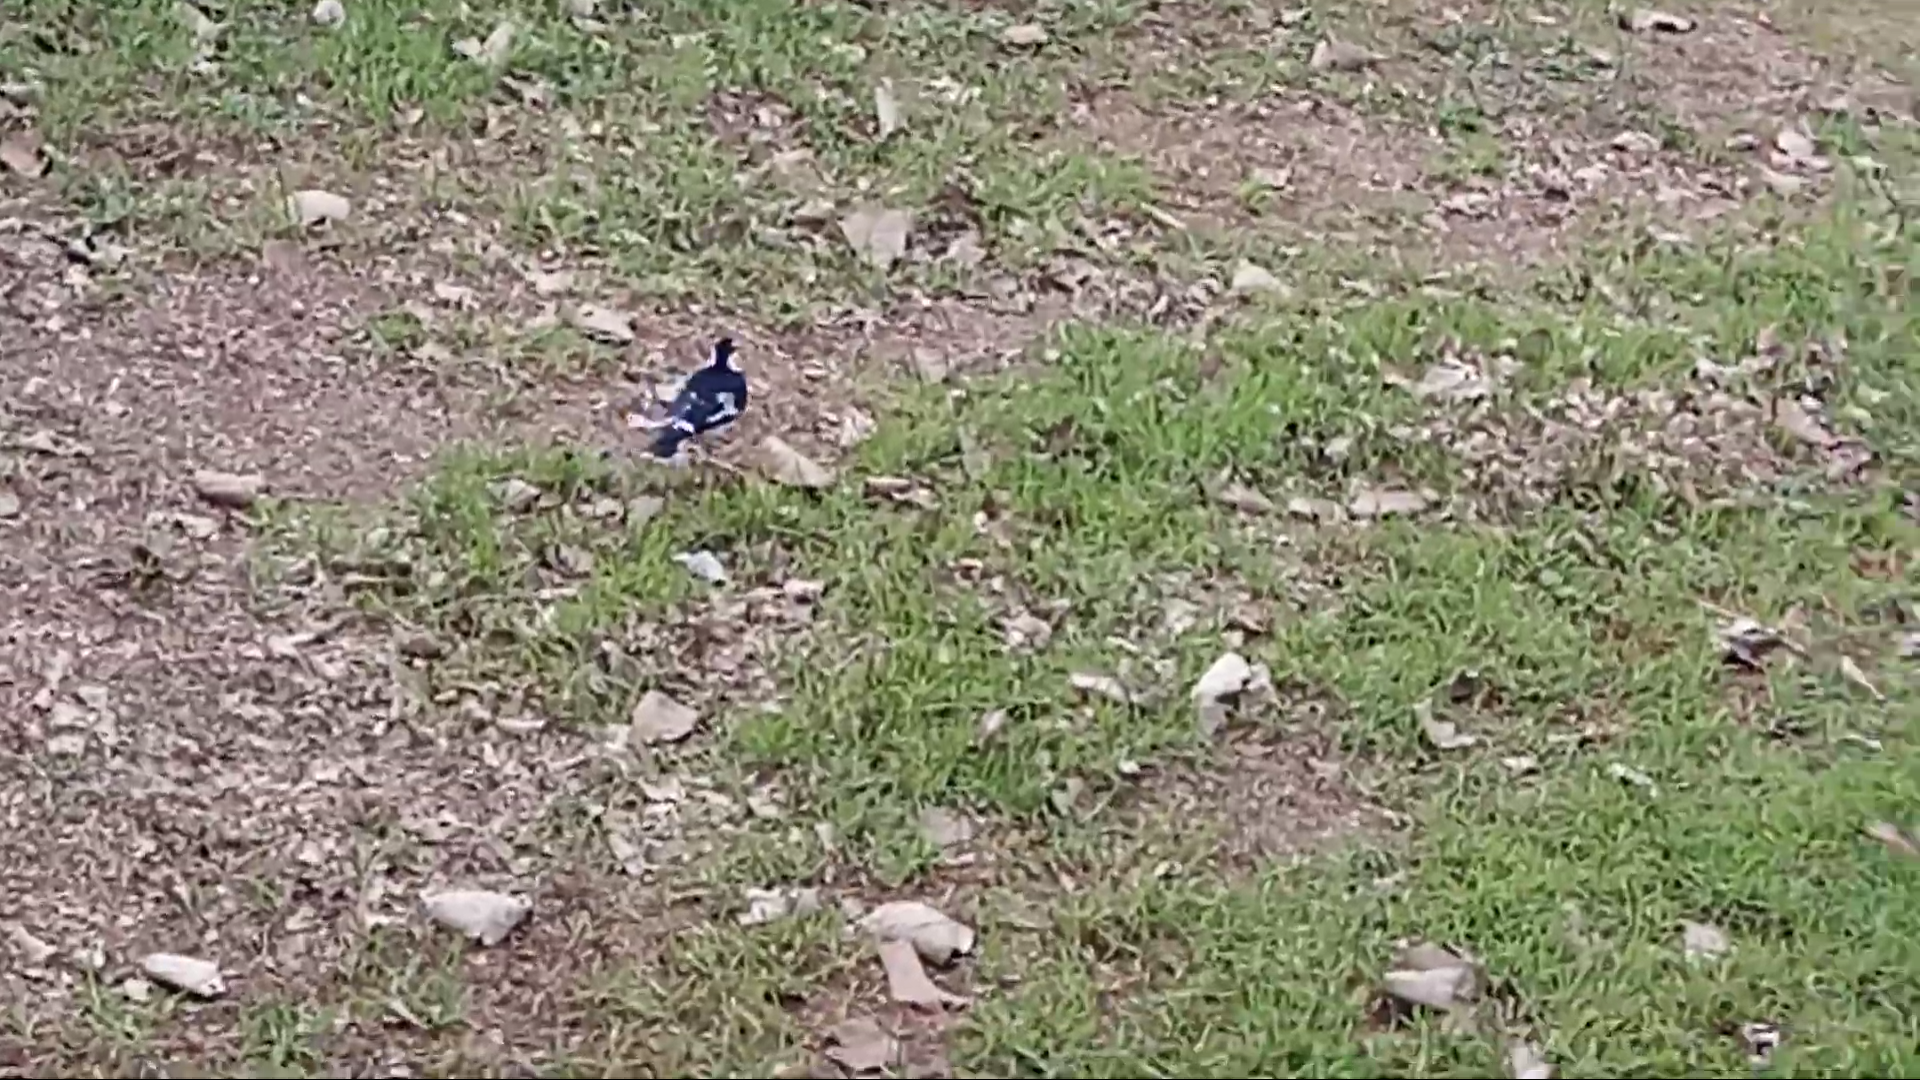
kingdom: Animalia
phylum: Chordata
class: Aves
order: Passeriformes
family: Monarchidae
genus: Grallina
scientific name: Grallina cyanoleuca
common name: Magpie-lark
